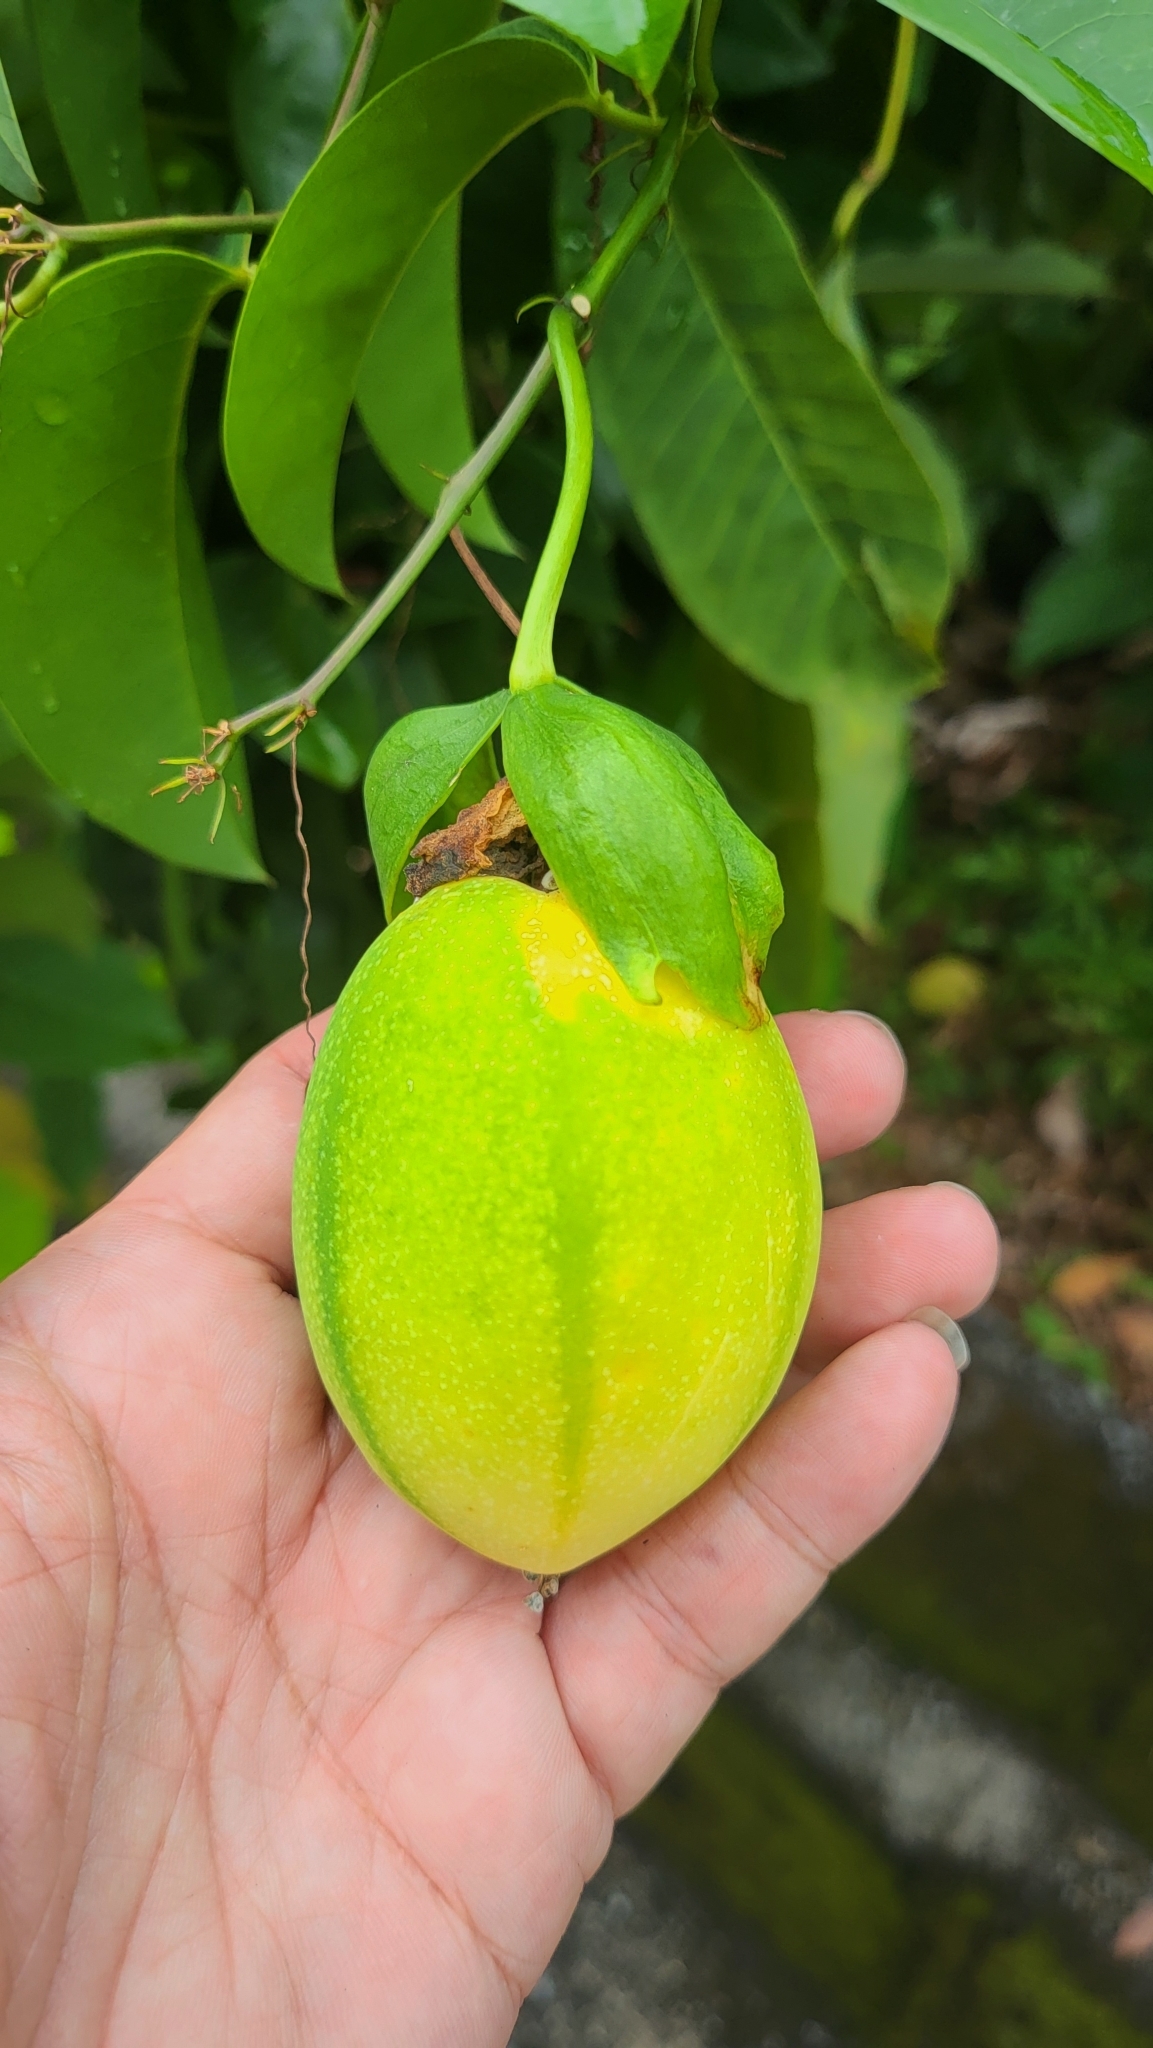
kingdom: Plantae
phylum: Tracheophyta
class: Magnoliopsida
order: Malpighiales
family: Passifloraceae
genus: Passiflora
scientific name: Passiflora laurifolia
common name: Bell apple
